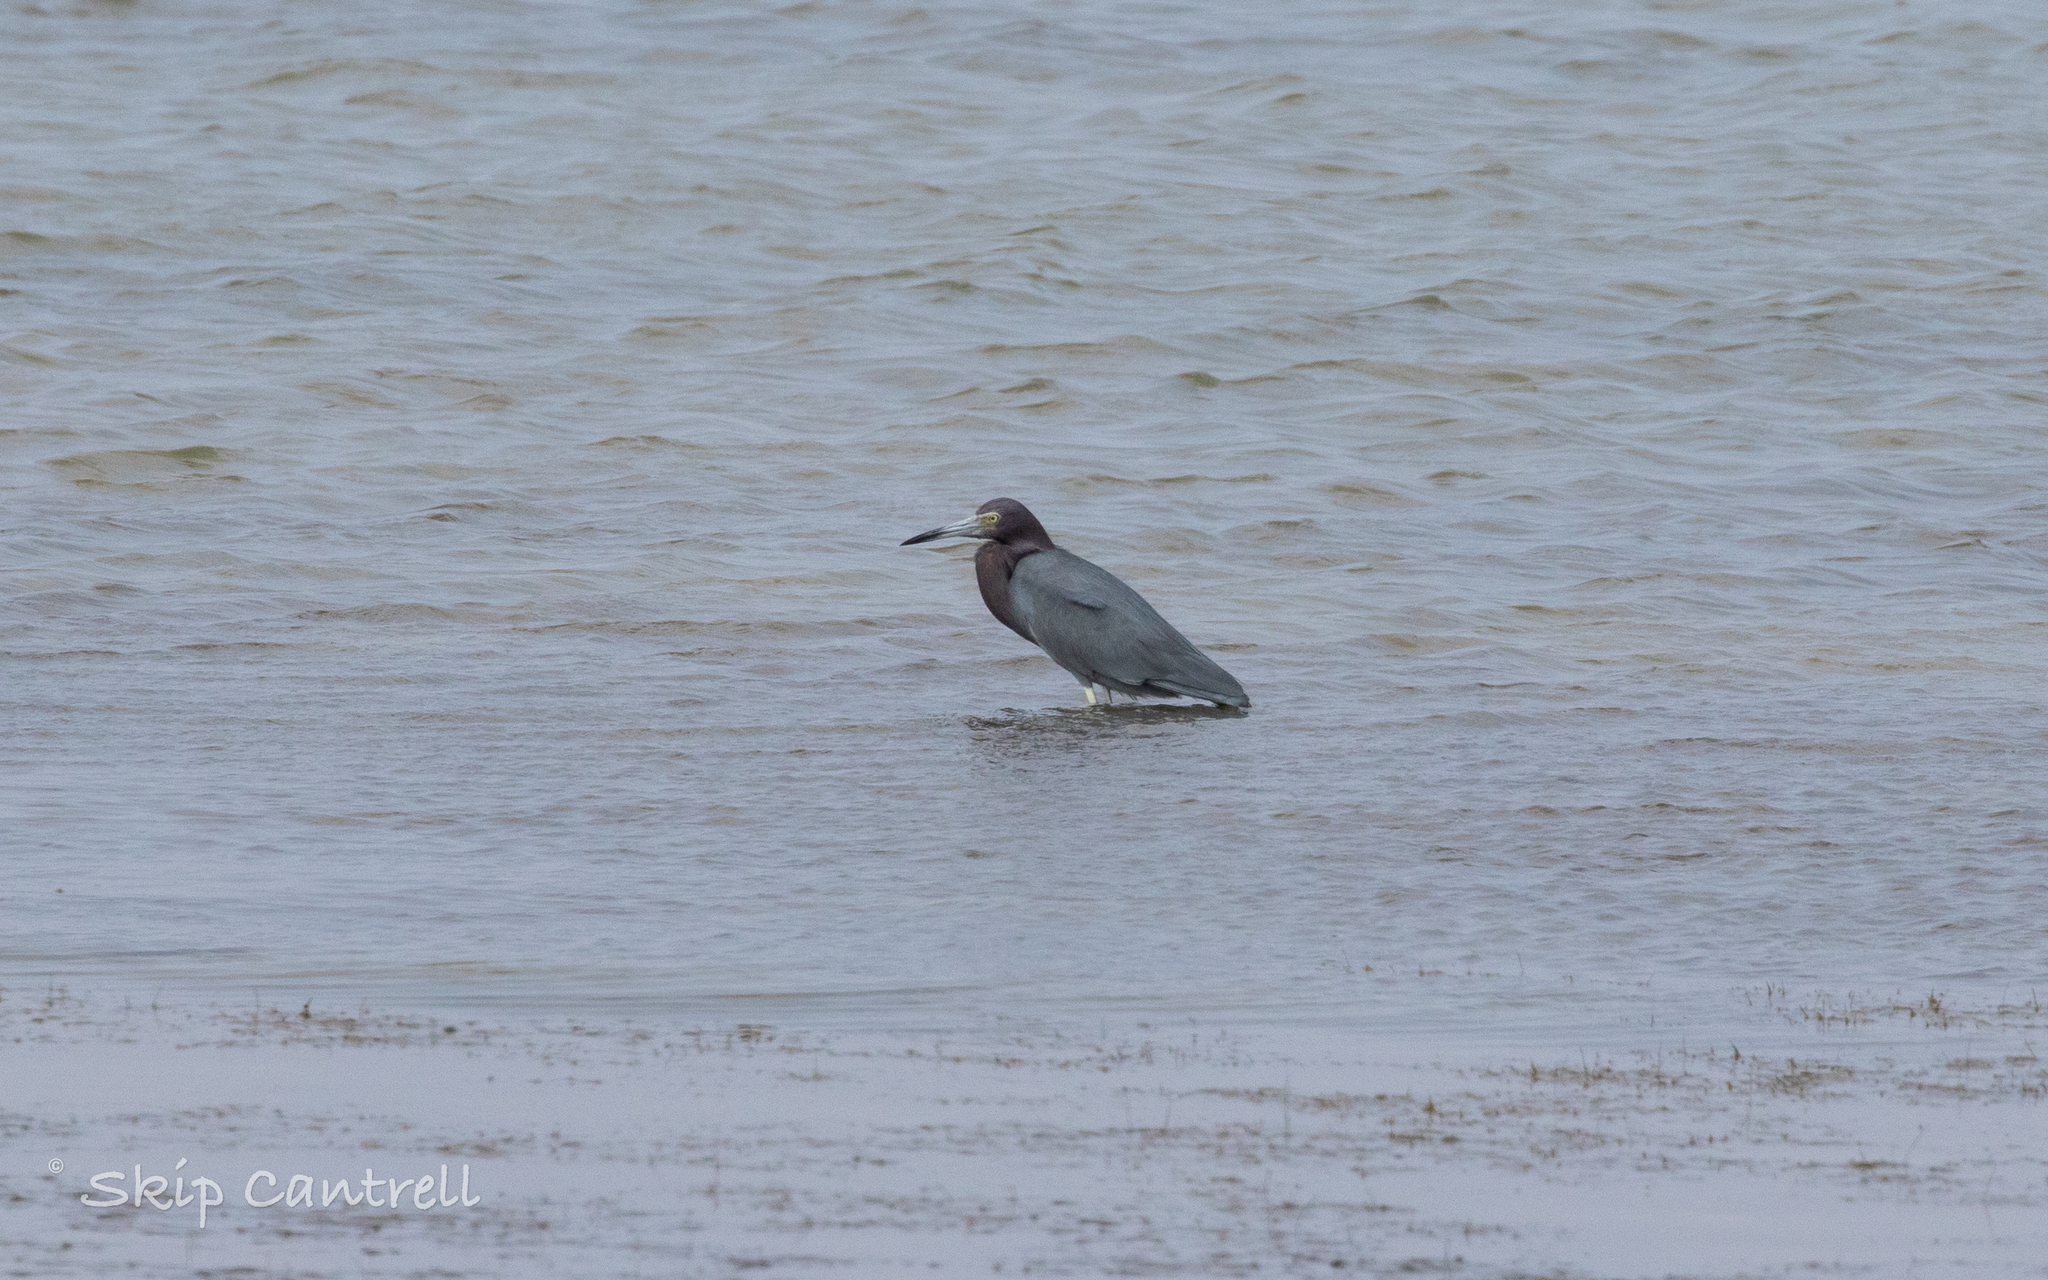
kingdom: Animalia
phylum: Chordata
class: Aves
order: Pelecaniformes
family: Ardeidae
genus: Egretta
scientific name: Egretta caerulea
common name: Little blue heron
